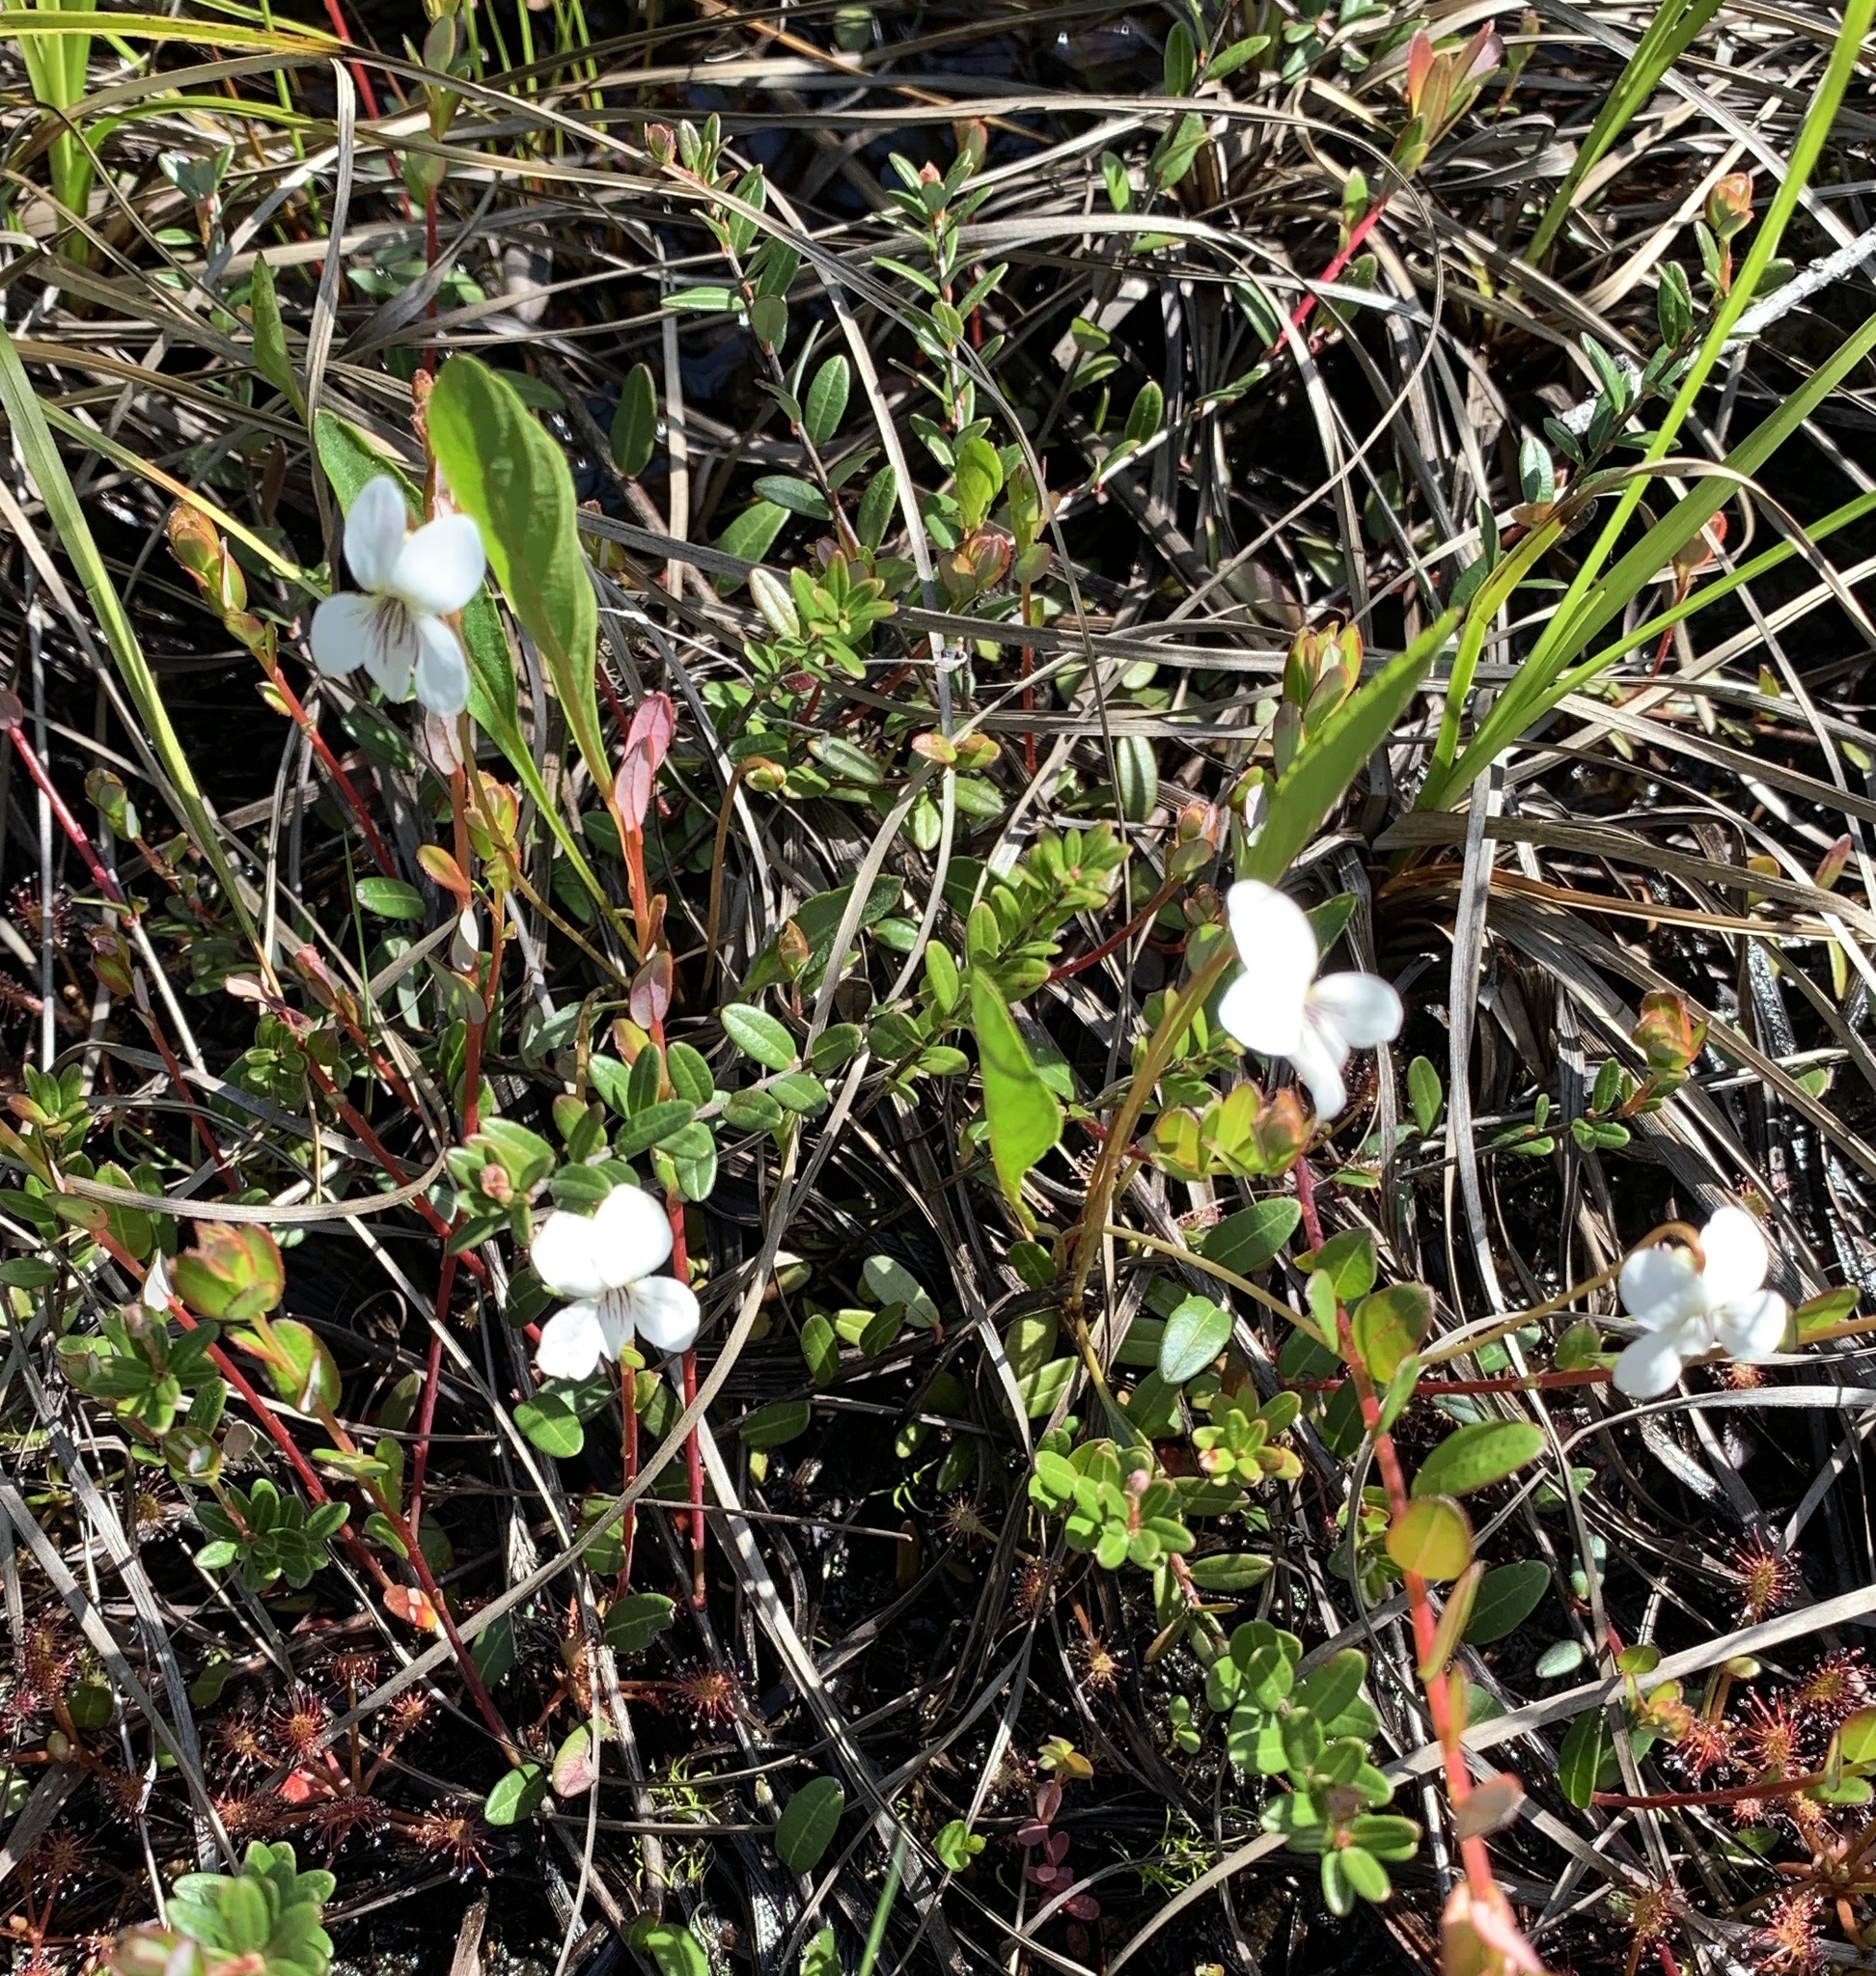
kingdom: Plantae
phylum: Tracheophyta
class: Magnoliopsida
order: Malpighiales
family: Violaceae
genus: Viola
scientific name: Viola lanceolata
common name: Bog white violet
